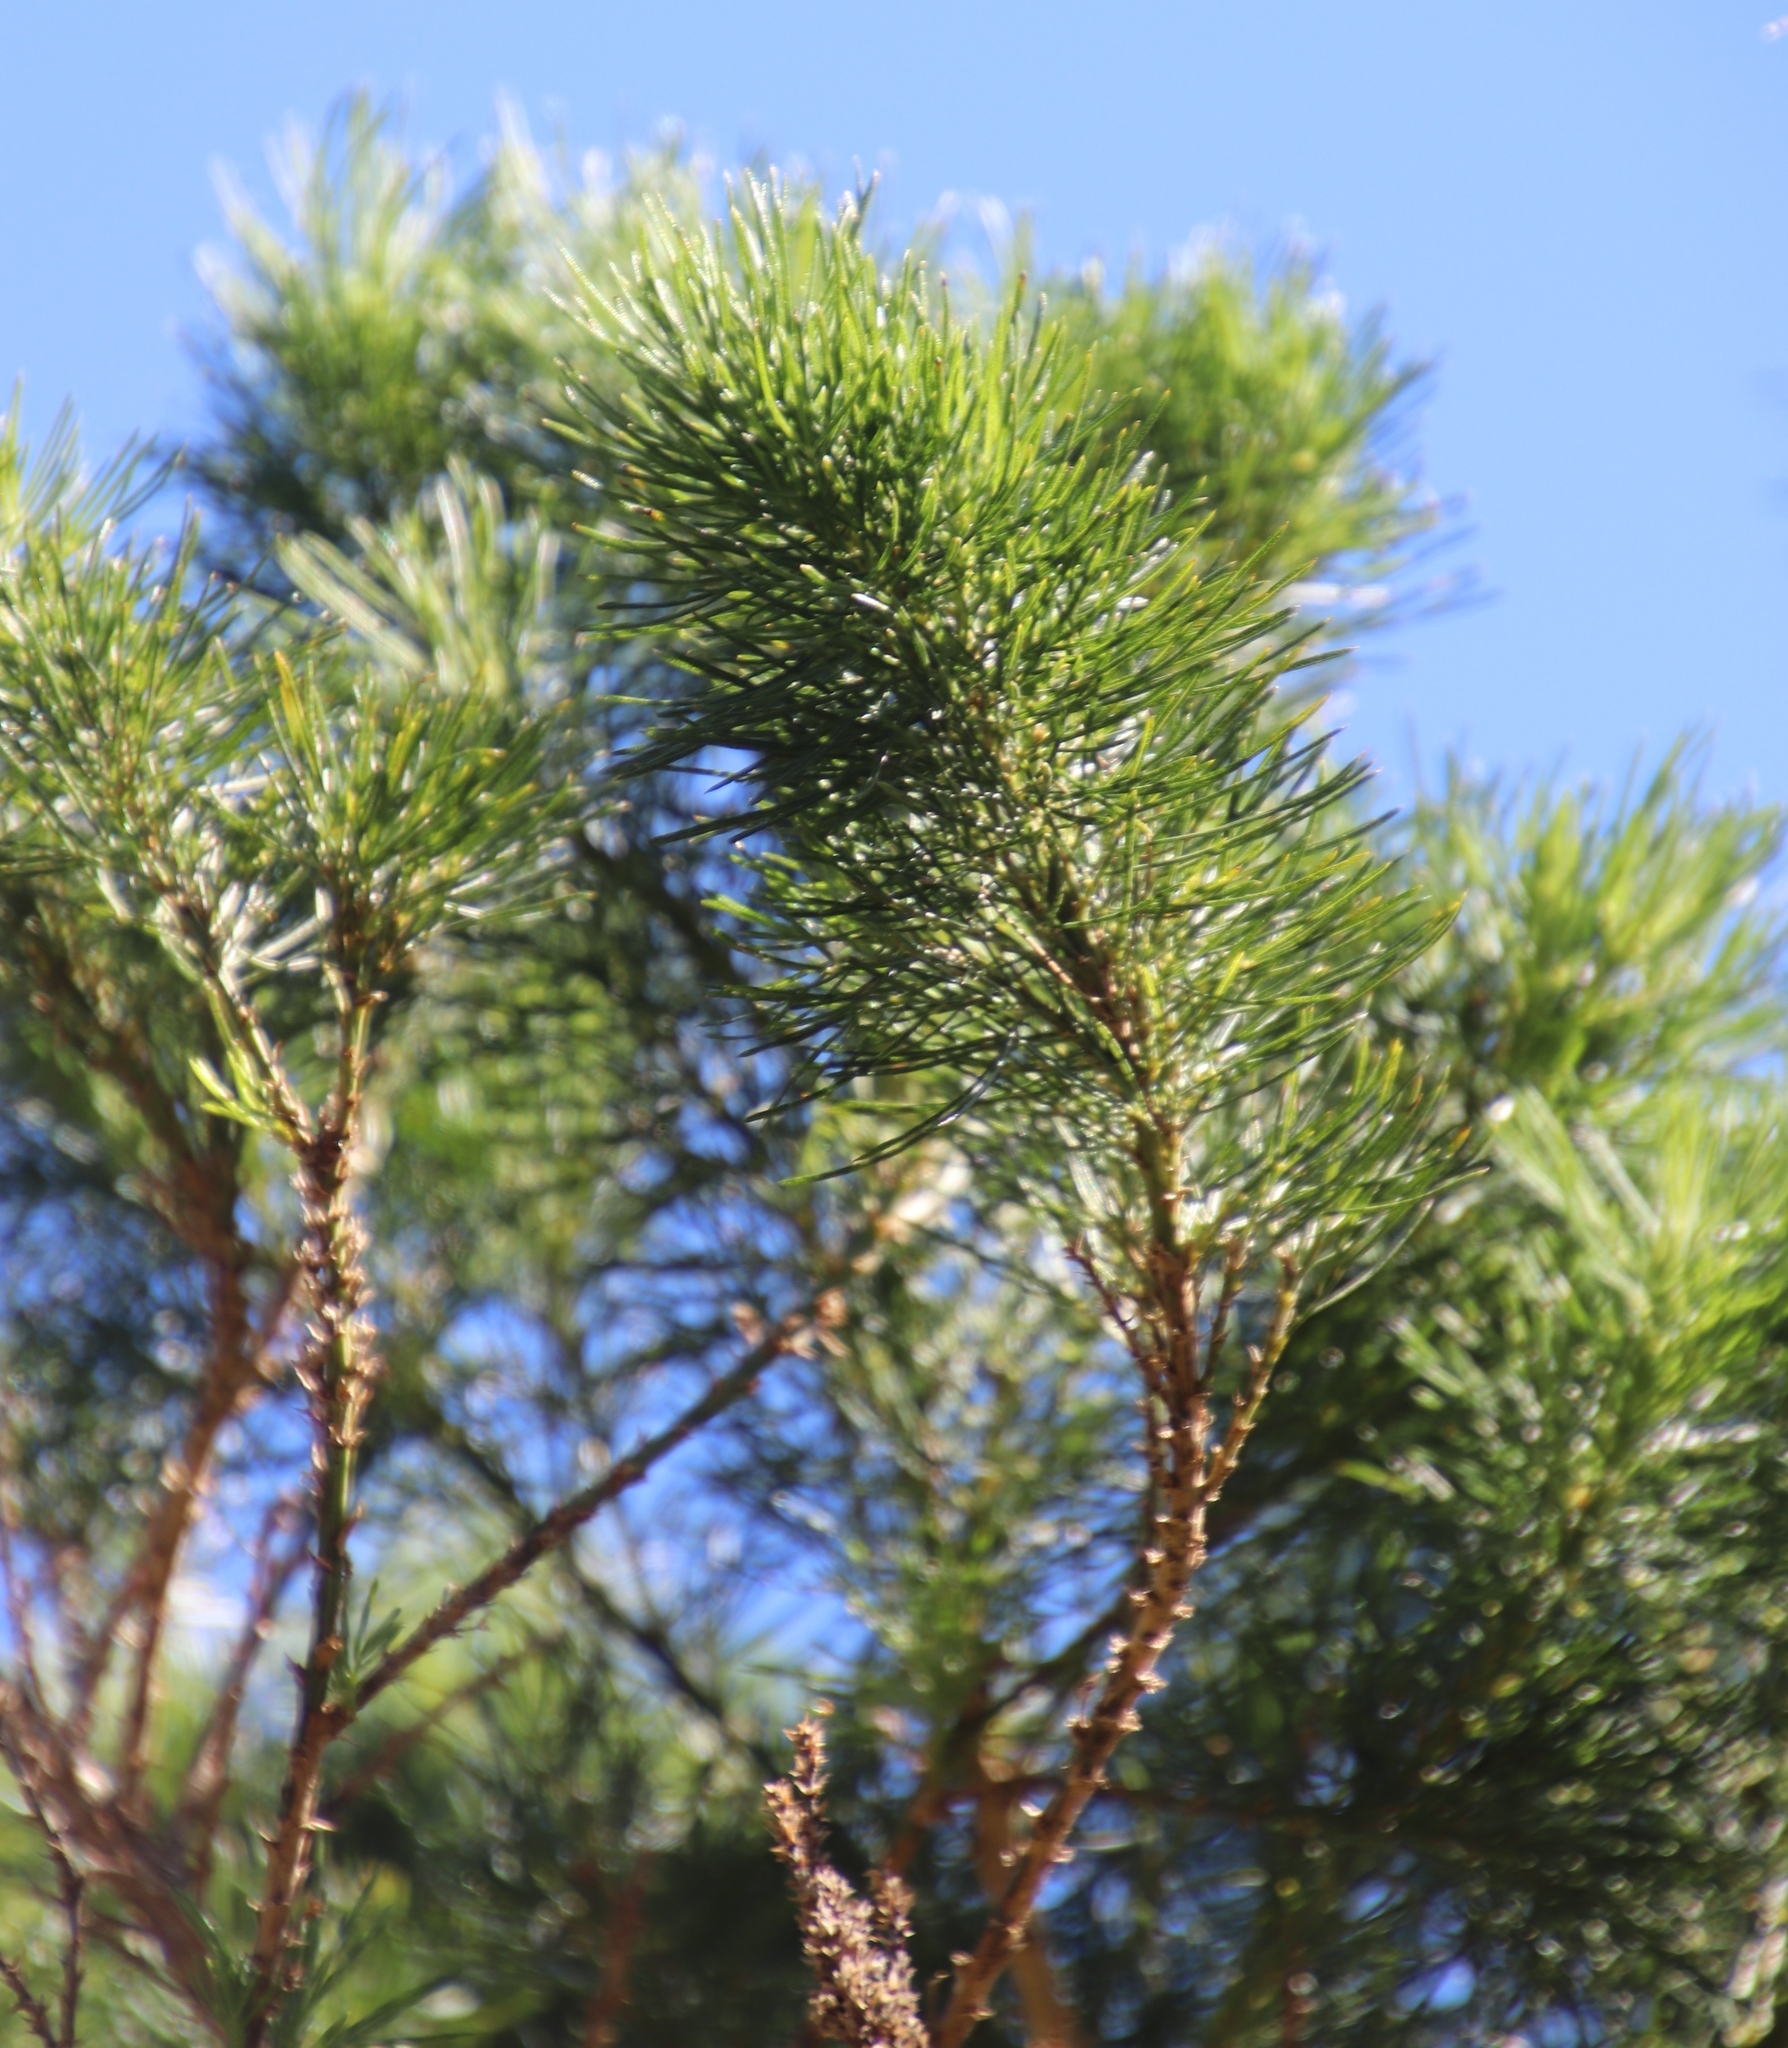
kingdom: Plantae
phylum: Tracheophyta
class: Magnoliopsida
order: Fabales
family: Fabaceae
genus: Psoralea
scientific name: Psoralea pinnata
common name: African scurfpea
